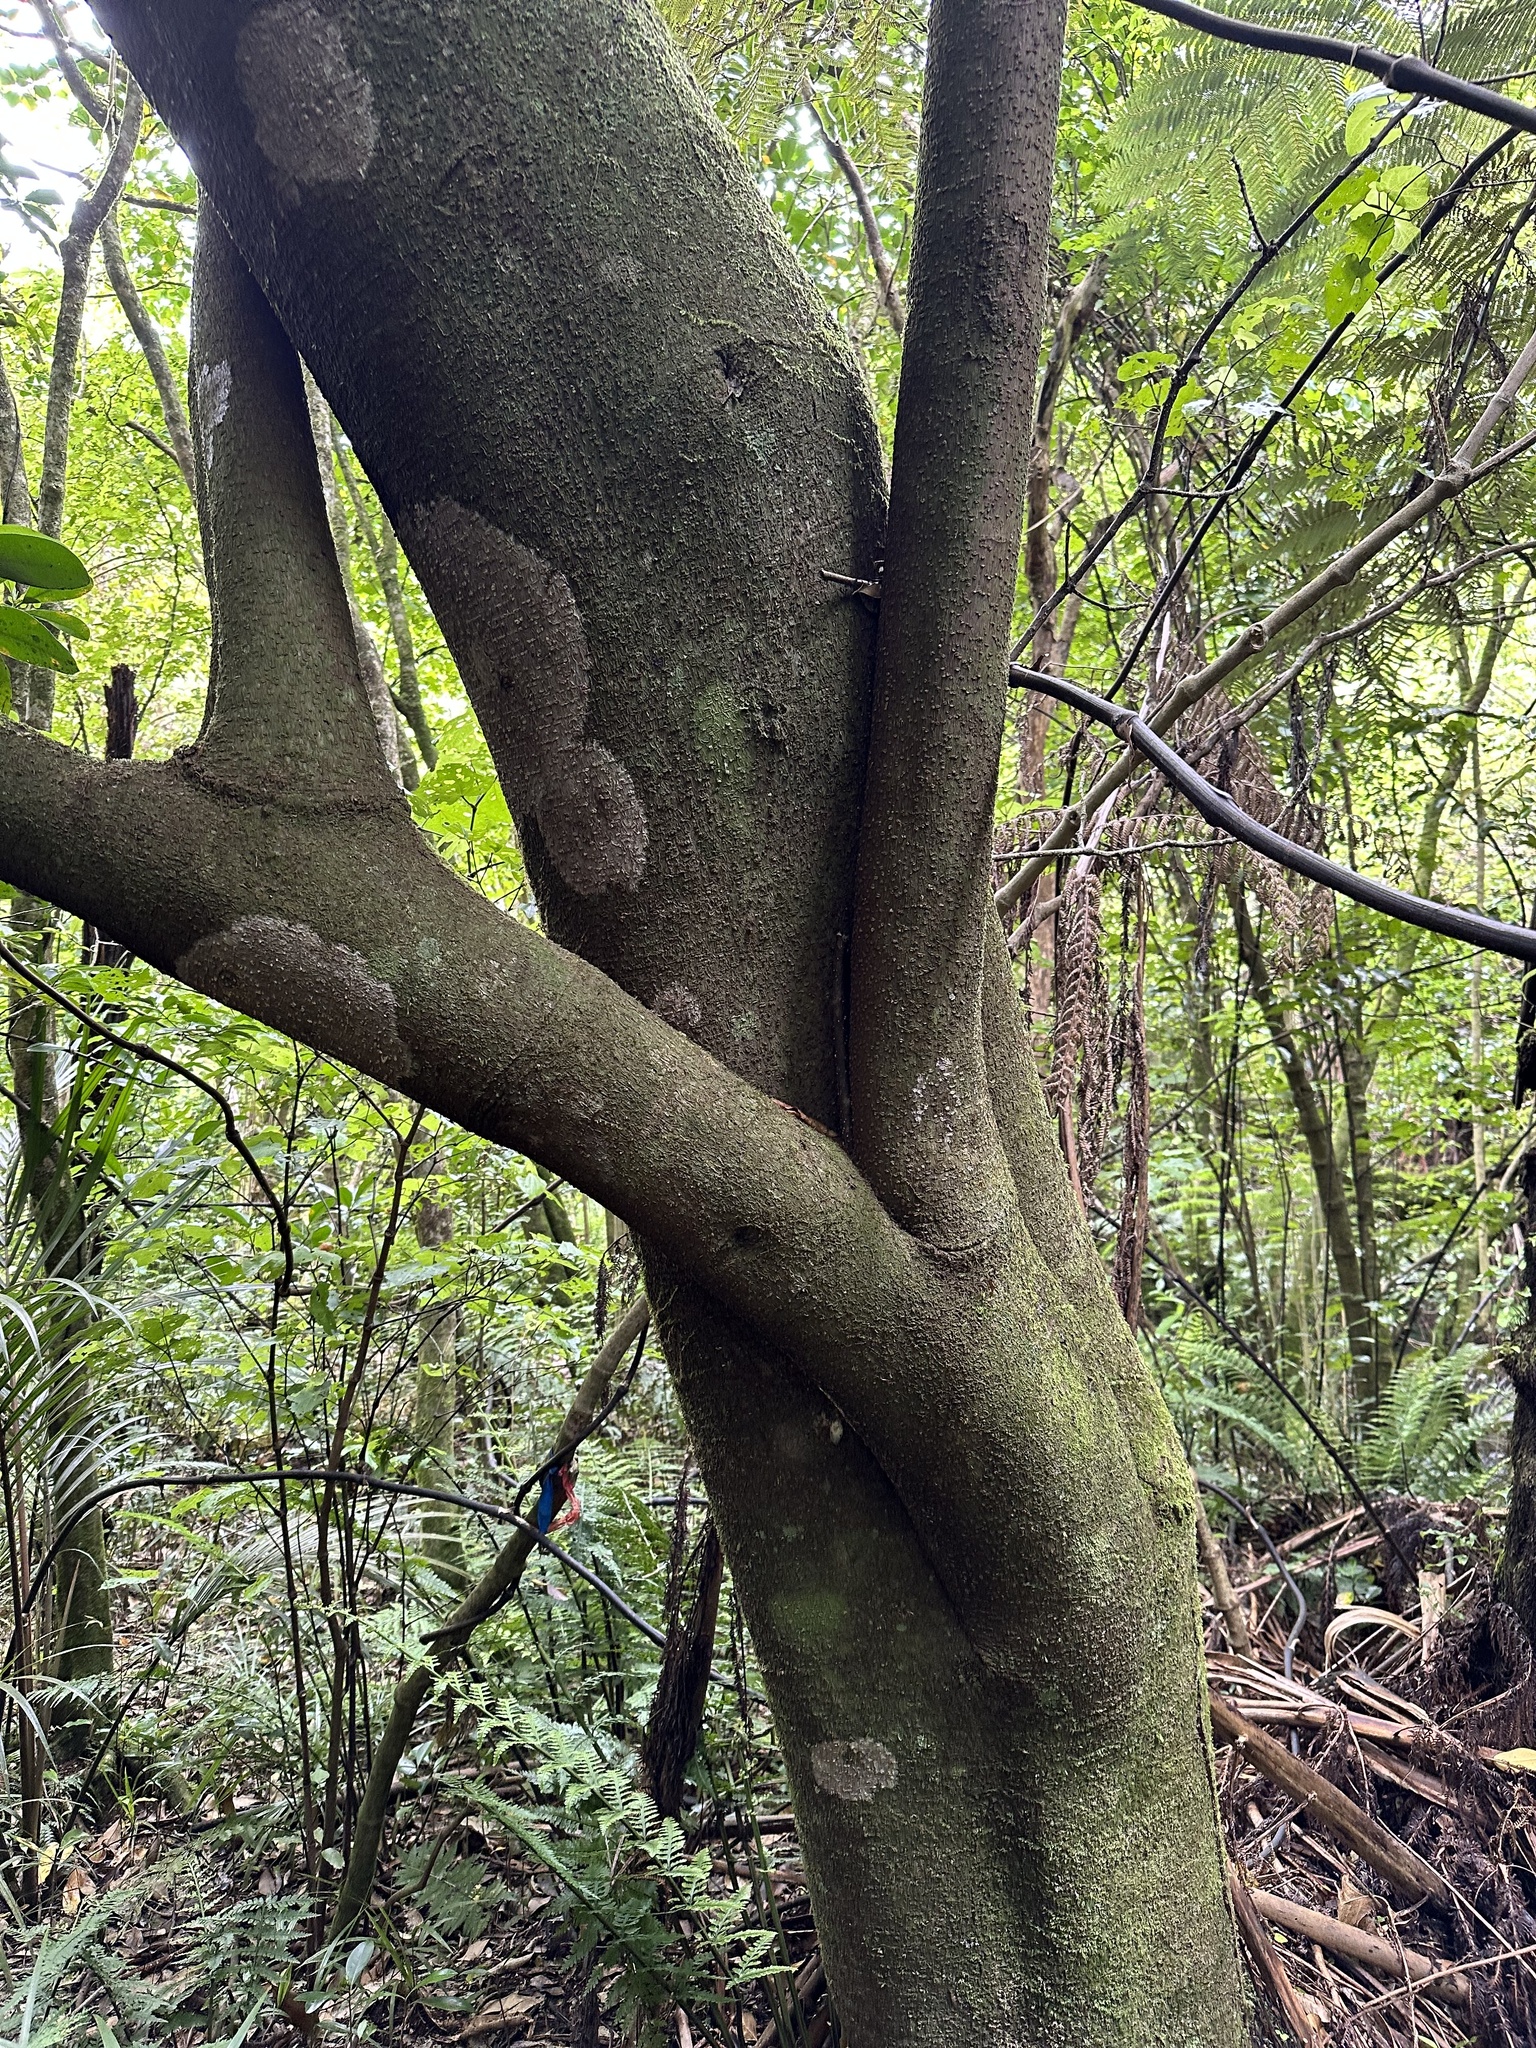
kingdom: Plantae
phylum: Tracheophyta
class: Magnoliopsida
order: Cucurbitales
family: Corynocarpaceae
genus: Corynocarpus
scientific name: Corynocarpus laevigatus
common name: New zealand laurel
